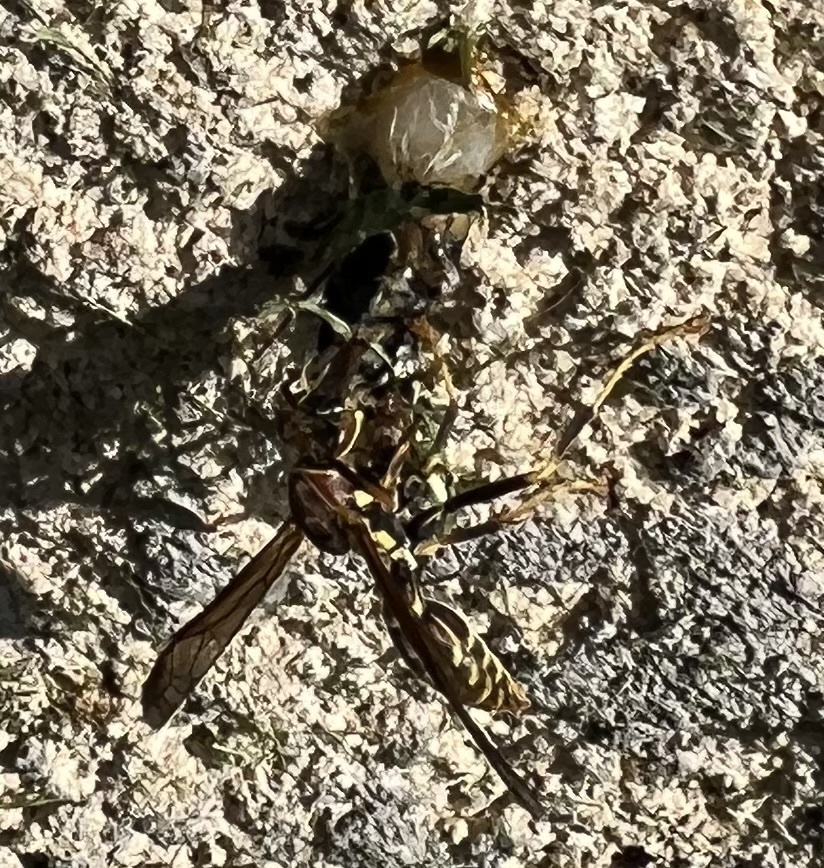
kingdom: Animalia
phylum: Arthropoda
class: Insecta
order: Hymenoptera
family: Eumenidae
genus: Polistes
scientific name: Polistes exclamans
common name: Paper wasp
